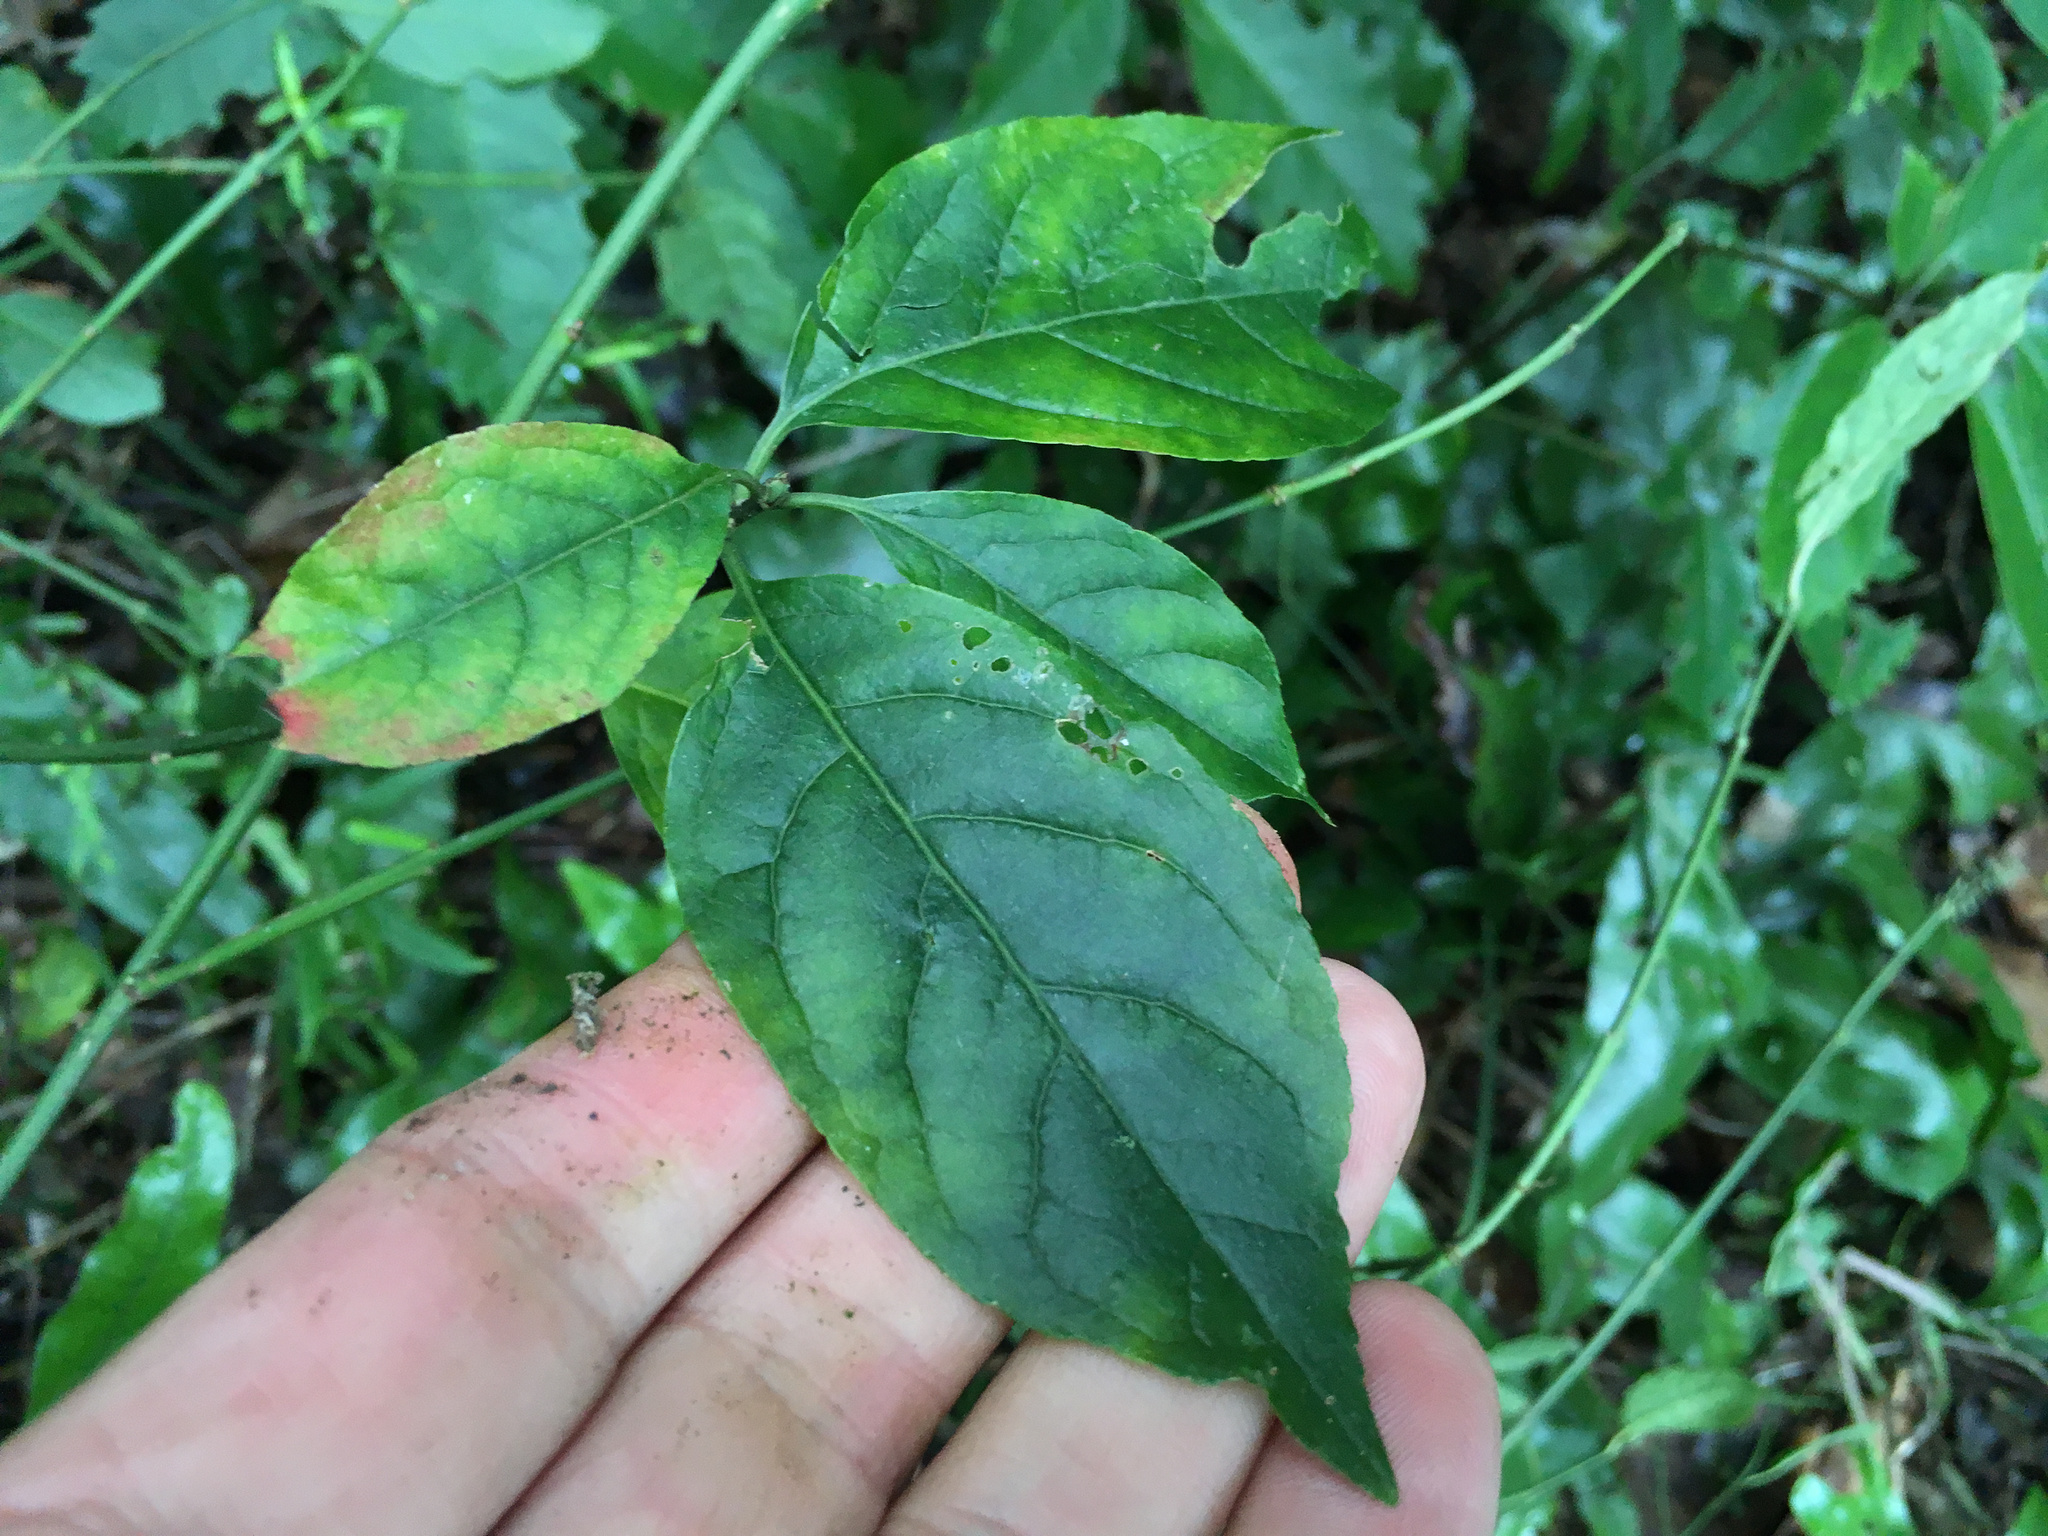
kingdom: Plantae
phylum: Tracheophyta
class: Magnoliopsida
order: Celastrales
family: Celastraceae
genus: Euonymus
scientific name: Euonymus europaeus
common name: Spindle
